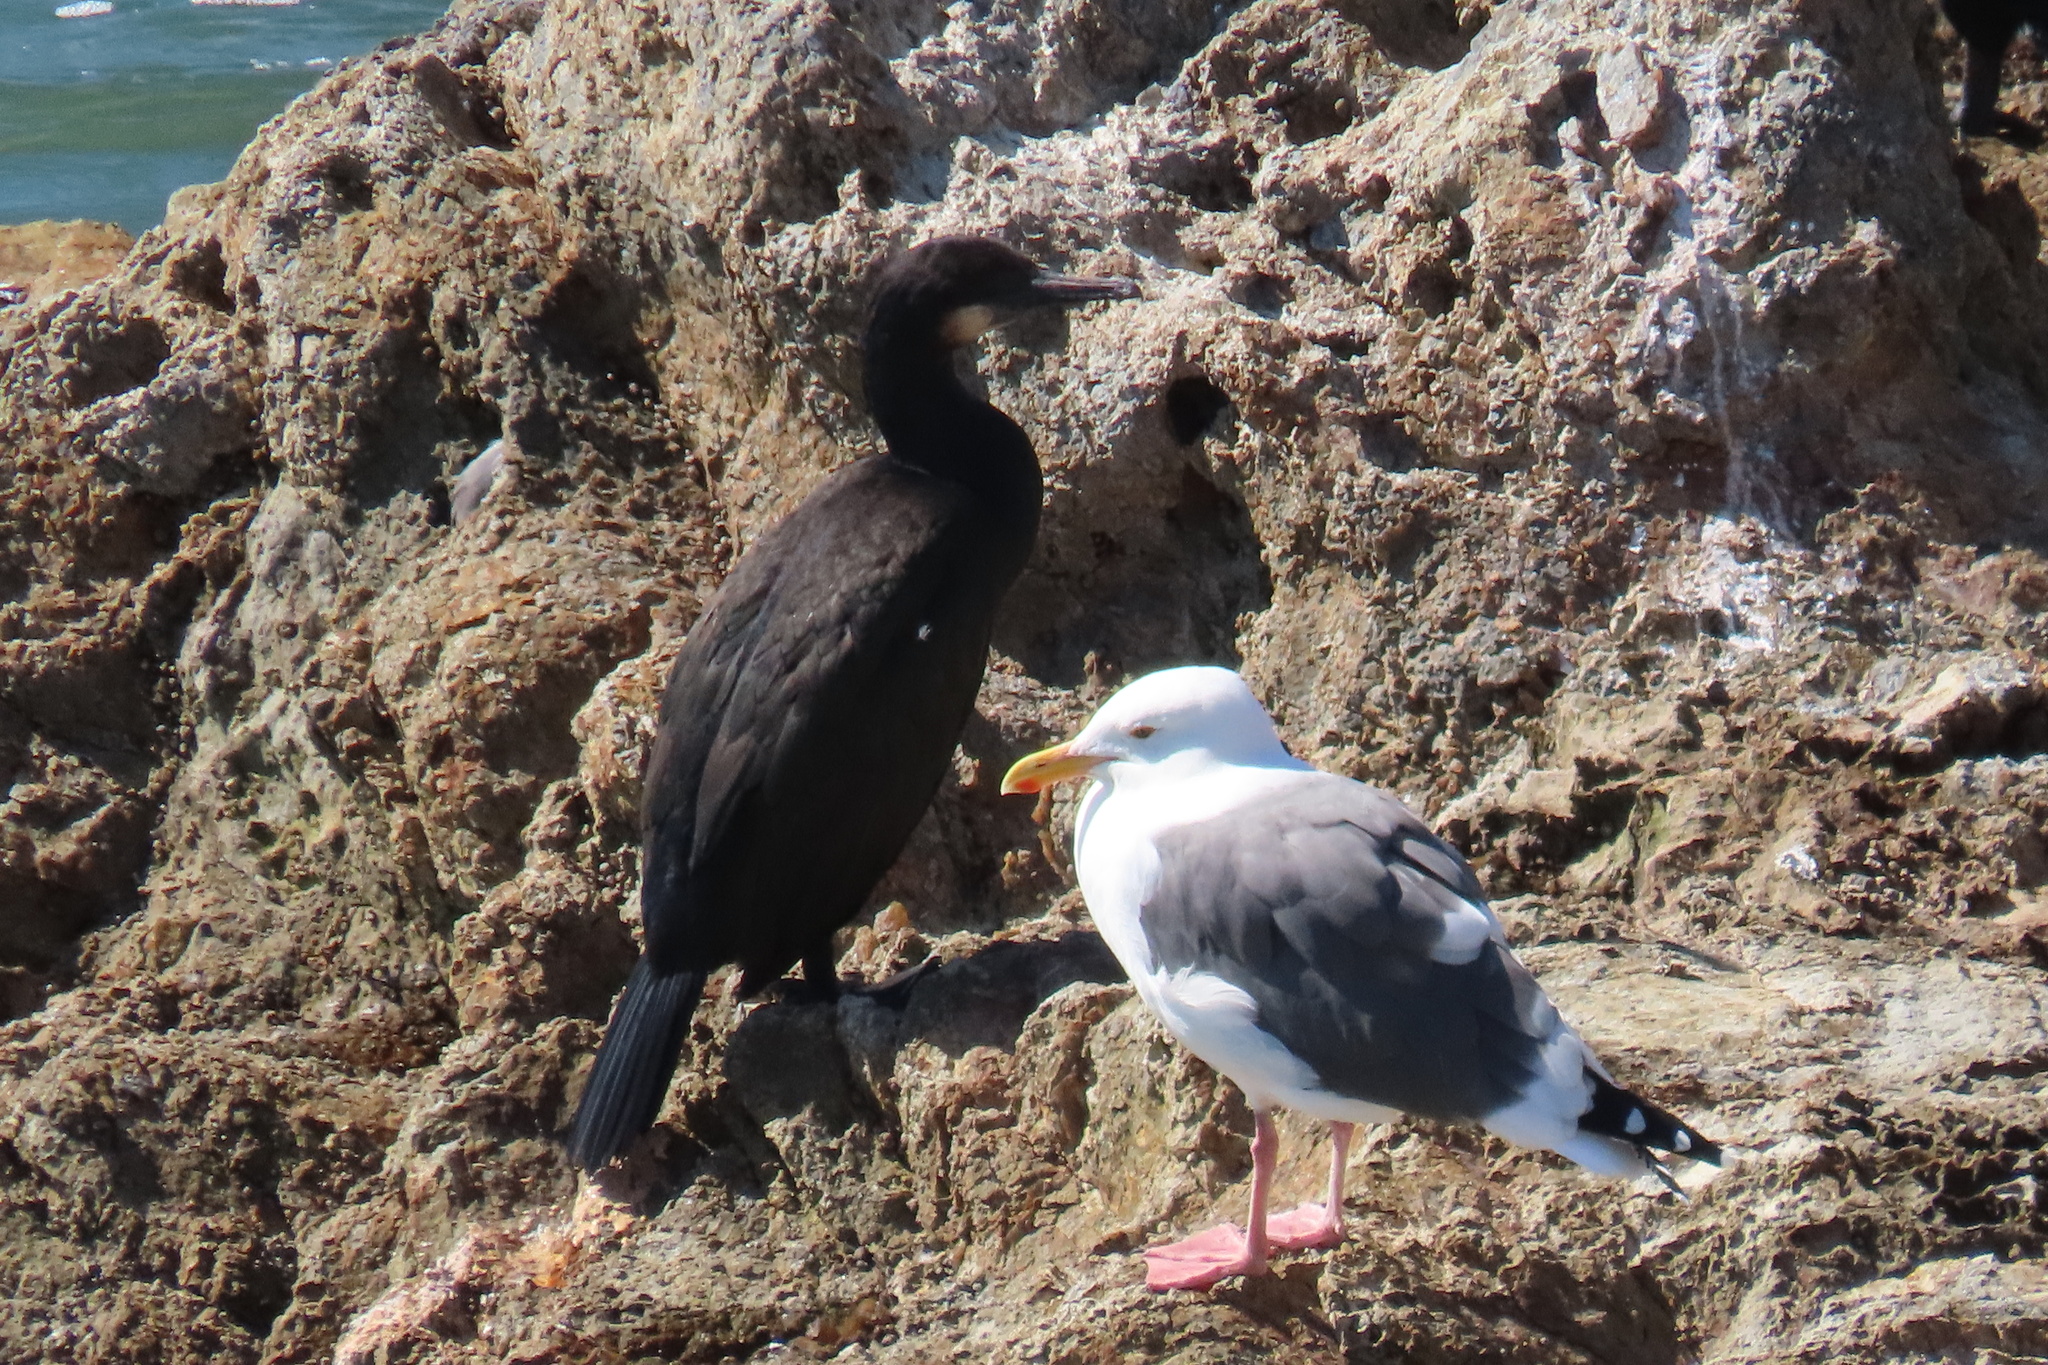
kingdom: Animalia
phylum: Chordata
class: Aves
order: Charadriiformes
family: Laridae
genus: Larus
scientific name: Larus occidentalis
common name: Western gull
